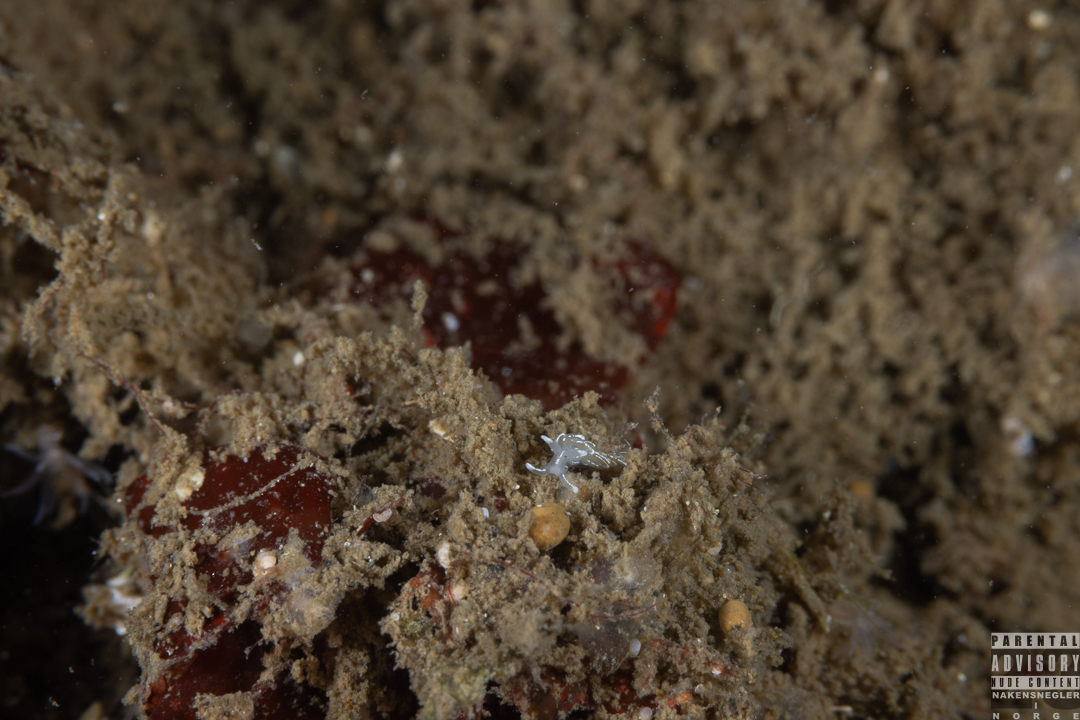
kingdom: Animalia
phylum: Mollusca
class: Gastropoda
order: Nudibranchia
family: Facelinidae
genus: Favorinus
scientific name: Favorinus blianus
